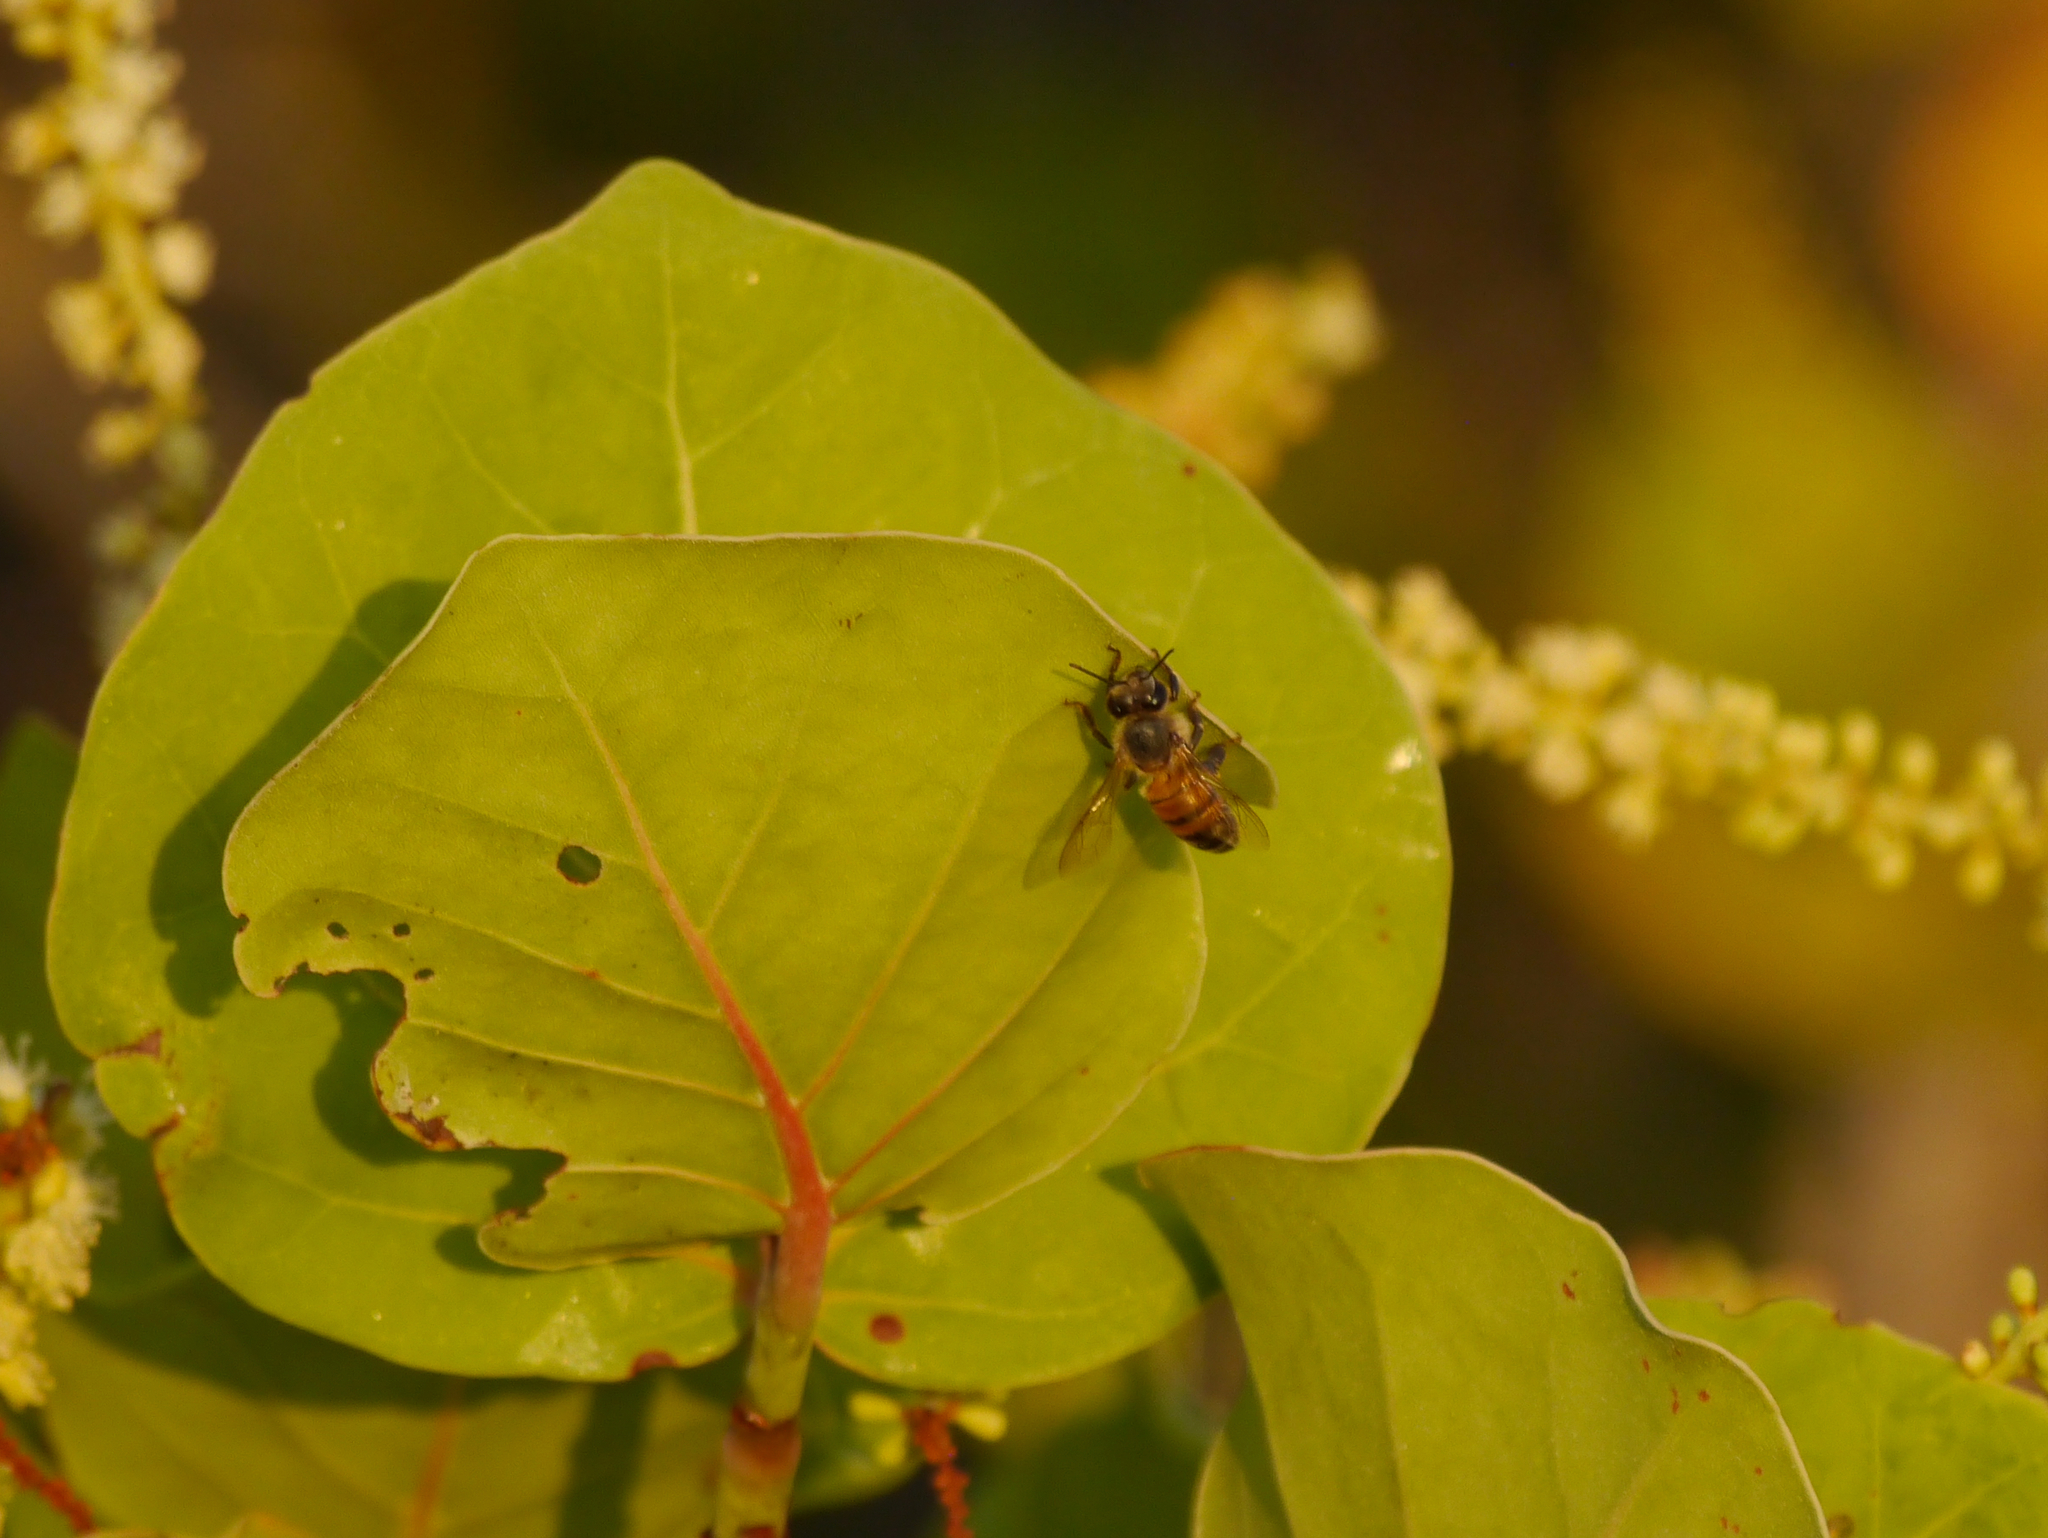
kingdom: Animalia
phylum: Arthropoda
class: Insecta
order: Hymenoptera
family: Apidae
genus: Apis
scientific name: Apis mellifera
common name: Honey bee
